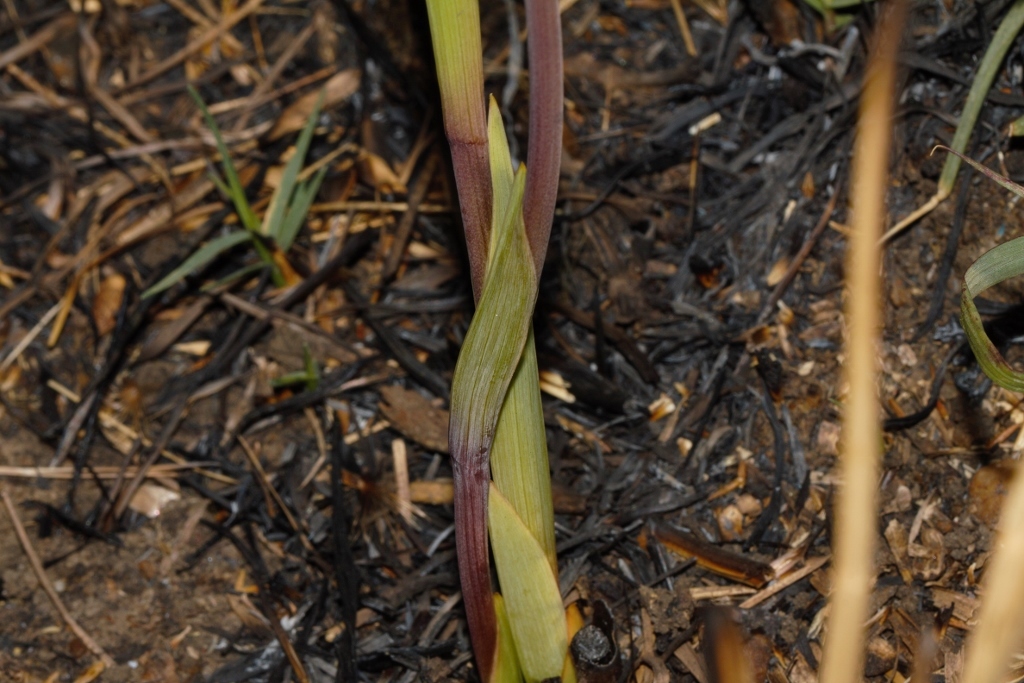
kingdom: Plantae
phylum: Tracheophyta
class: Liliopsida
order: Asparagales
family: Iridaceae
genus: Gladiolus
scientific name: Gladiolus melleri
